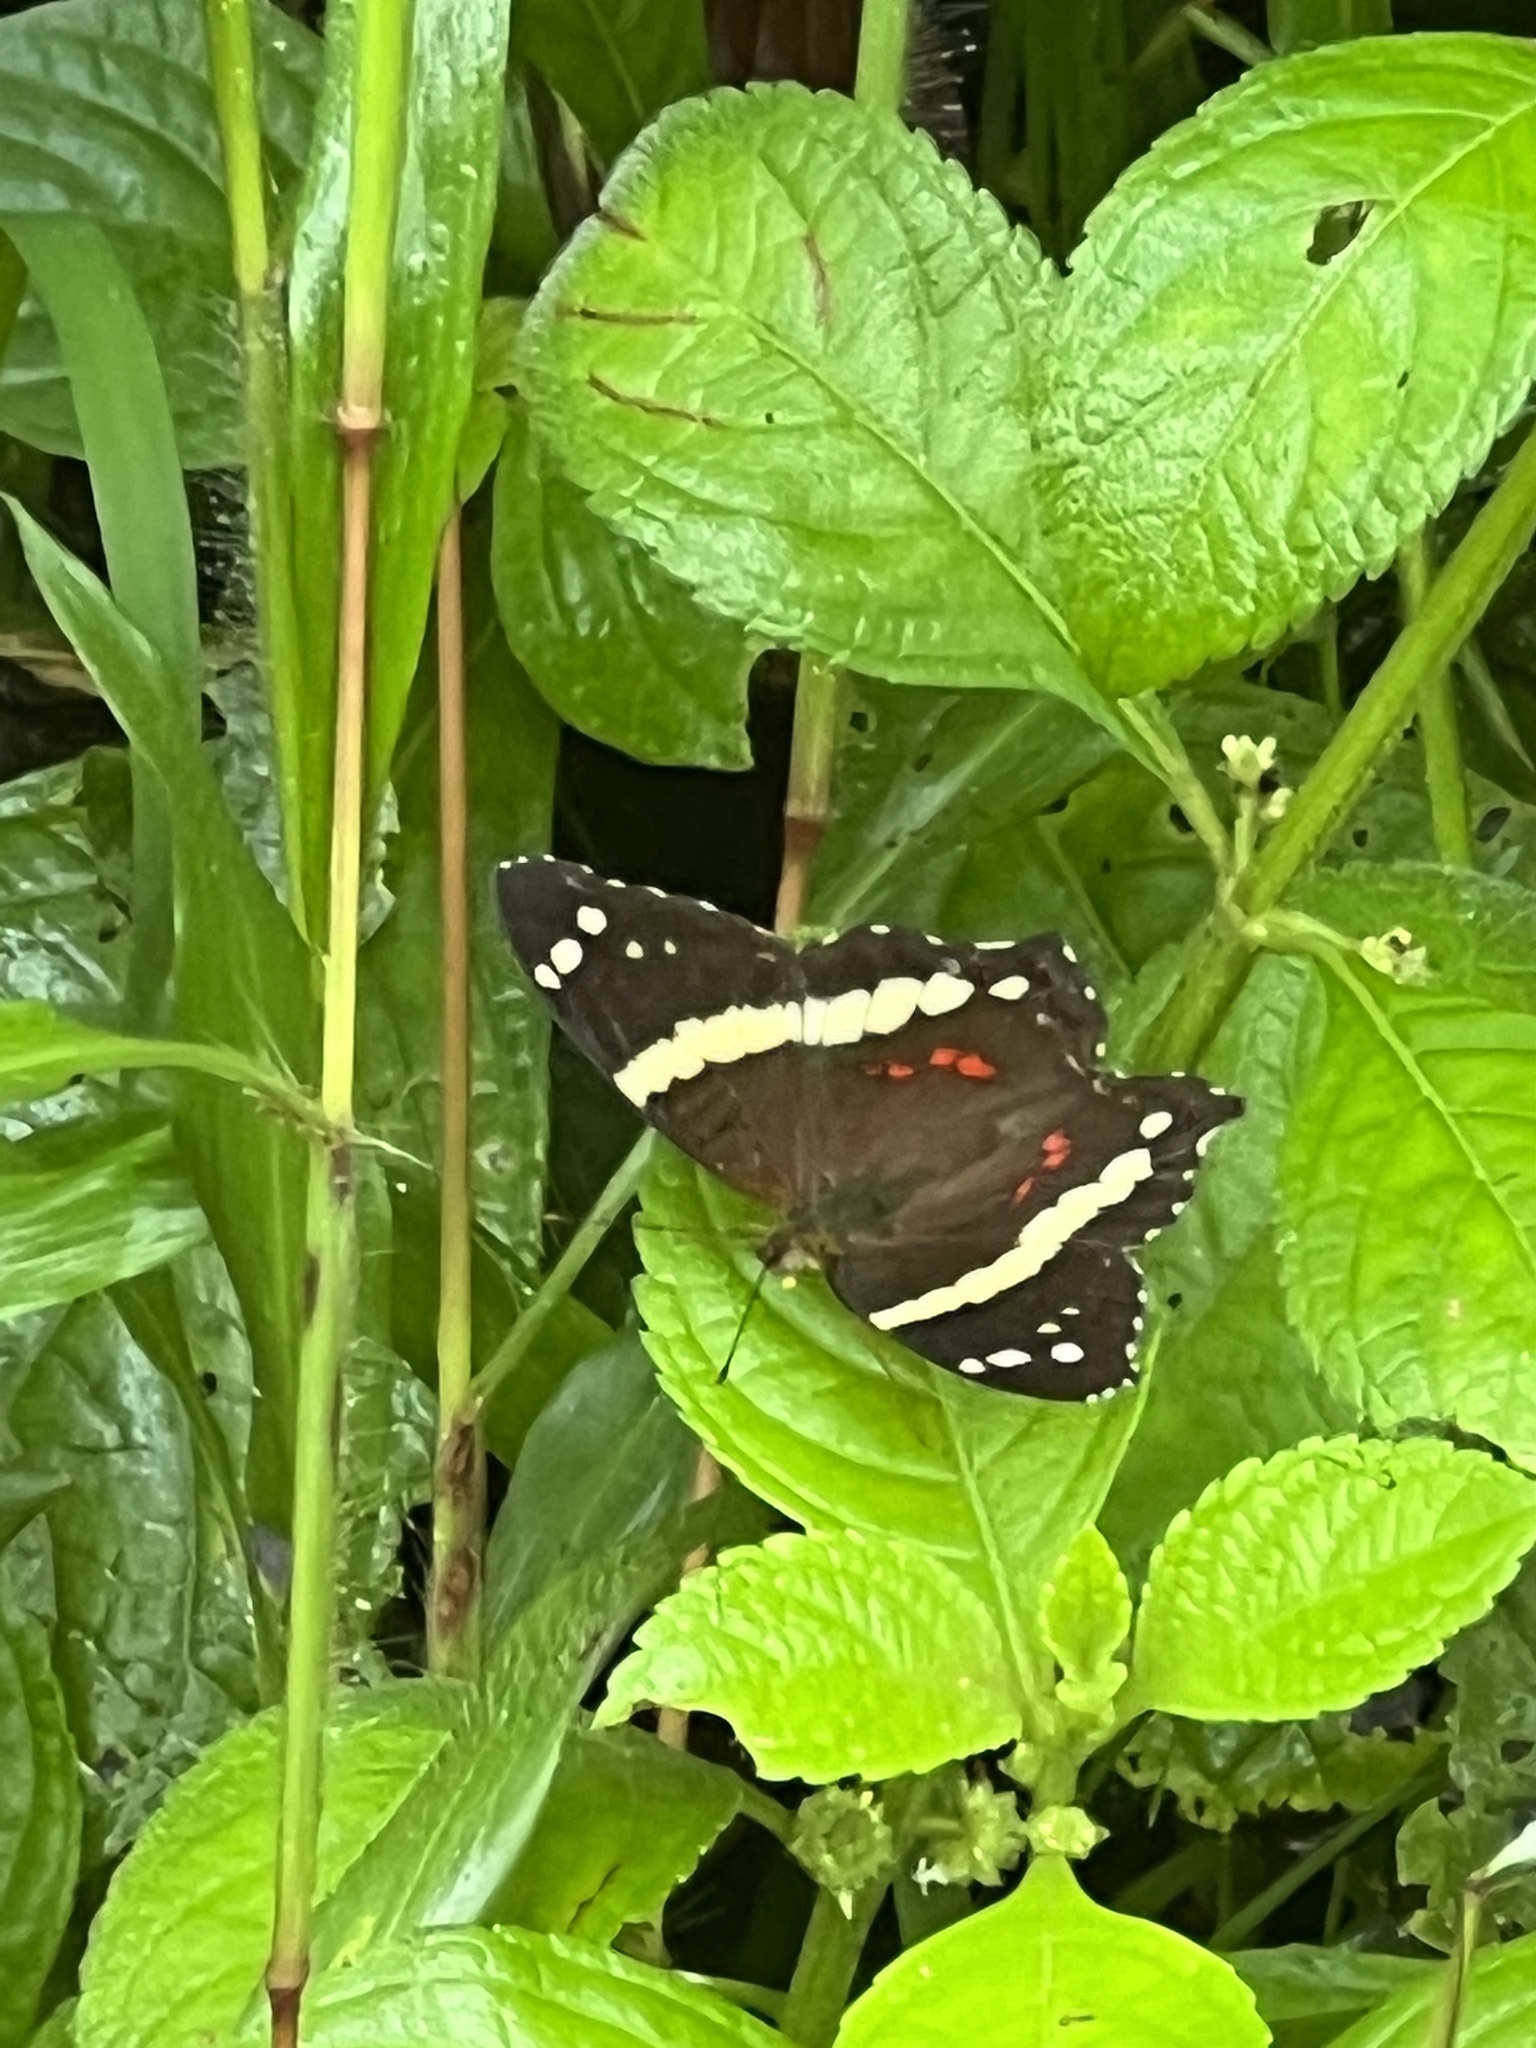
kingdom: Animalia
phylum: Arthropoda
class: Insecta
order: Lepidoptera
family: Nymphalidae
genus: Anartia
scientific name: Anartia fatima
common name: Banded peacock
